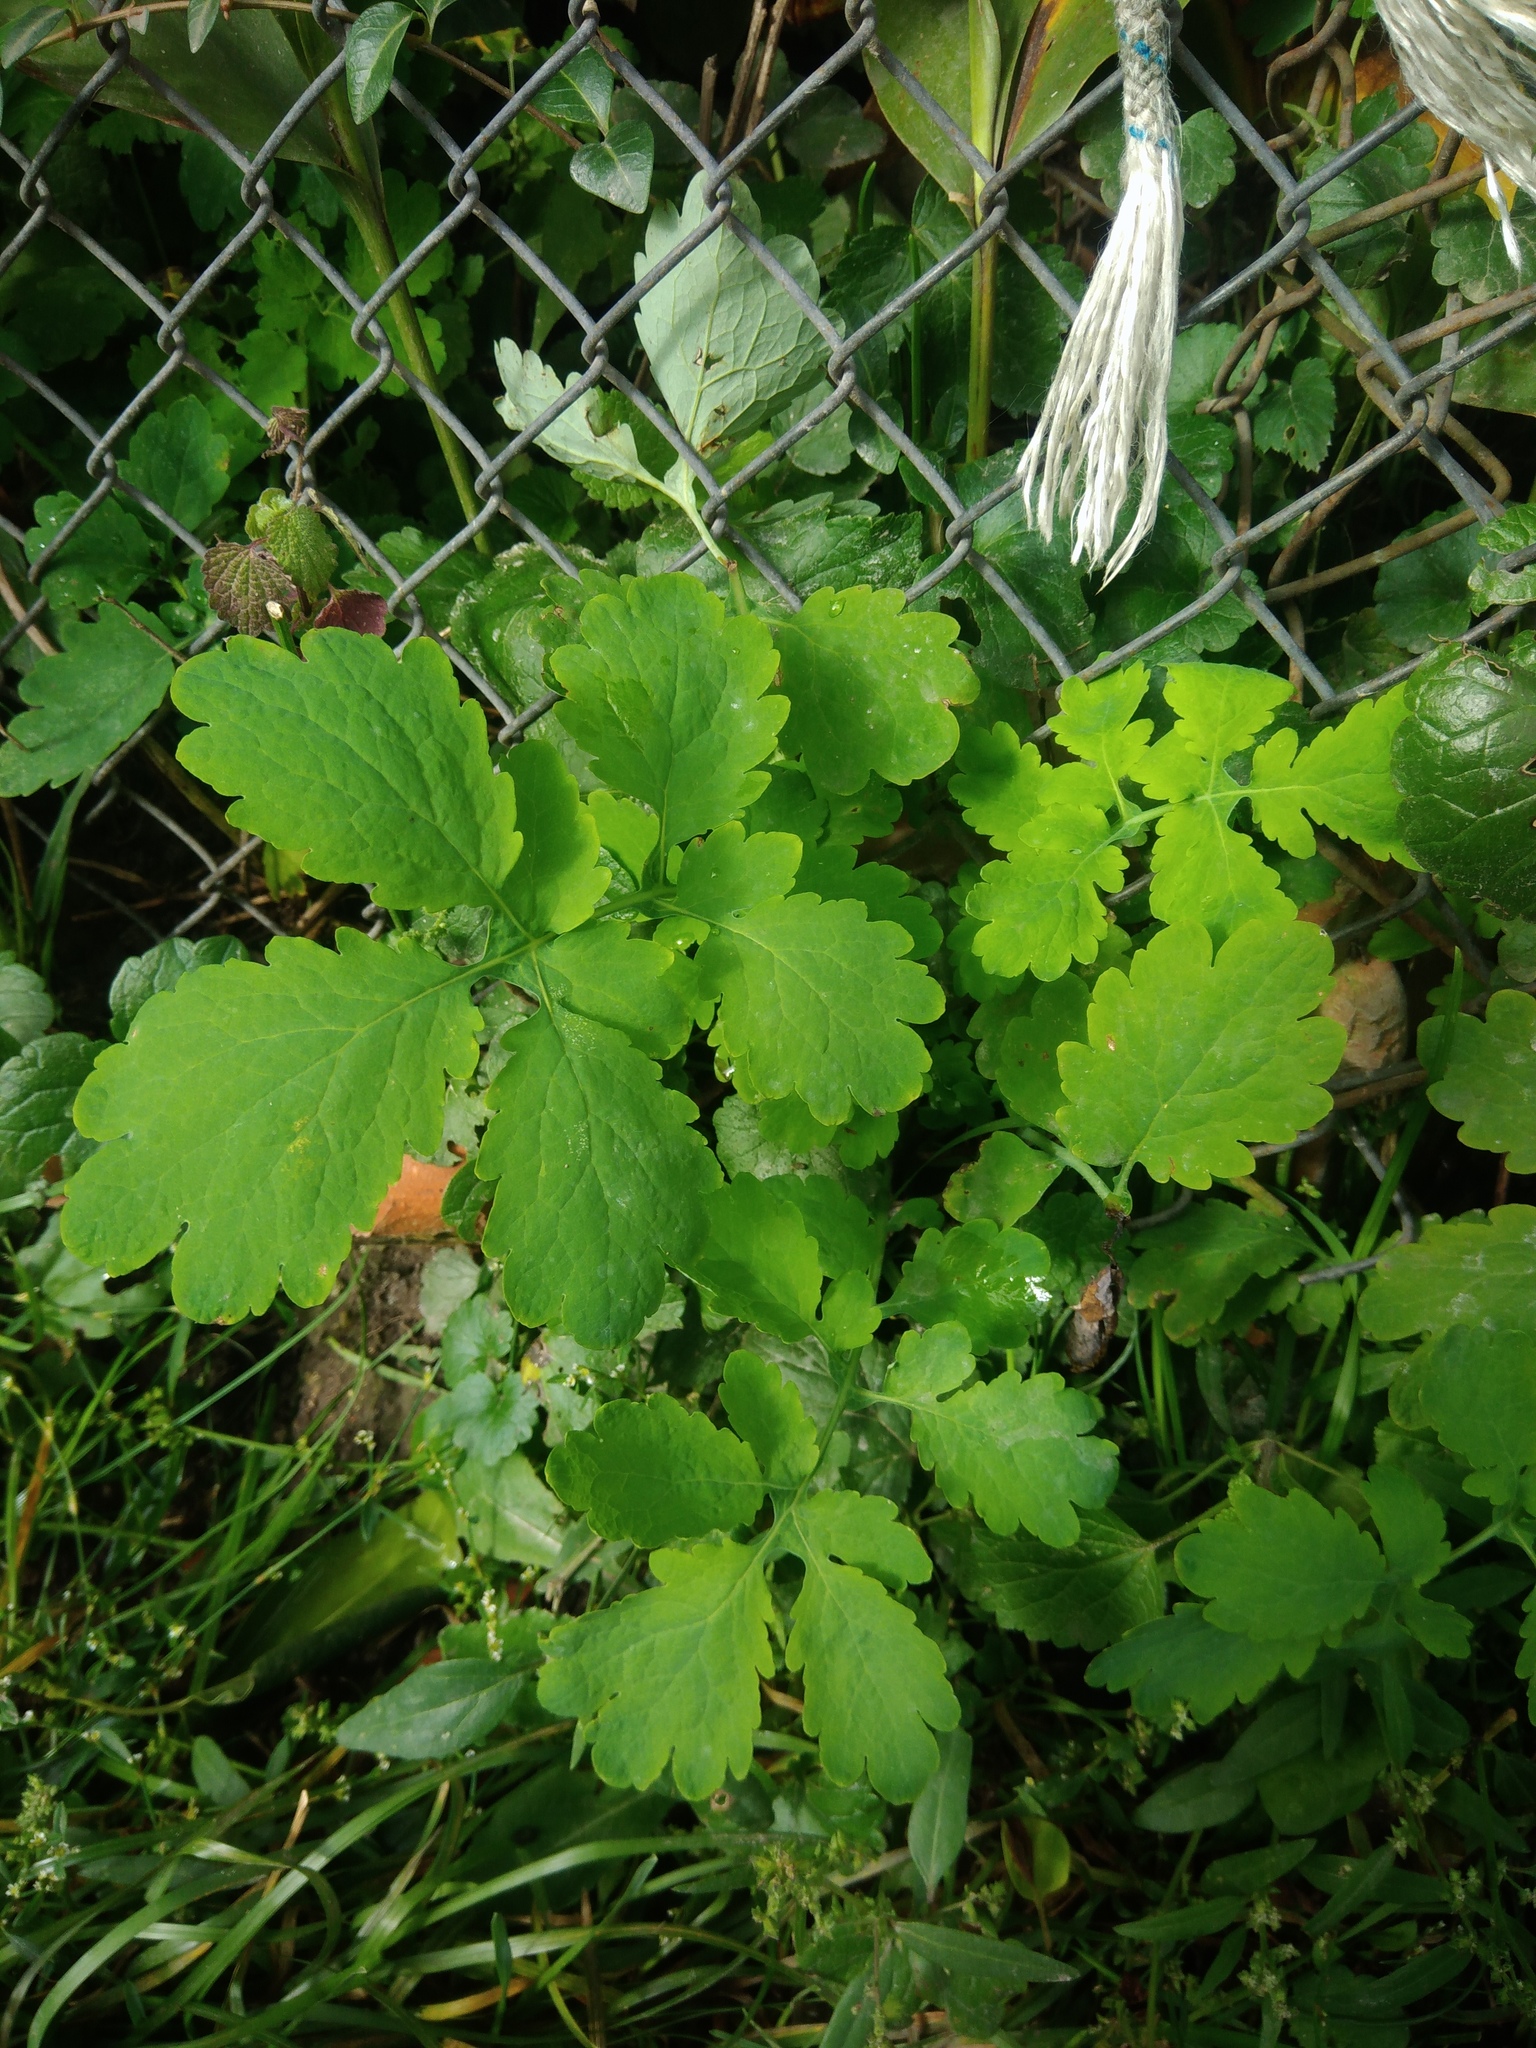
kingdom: Plantae
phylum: Tracheophyta
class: Magnoliopsida
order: Ranunculales
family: Papaveraceae
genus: Chelidonium
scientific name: Chelidonium majus
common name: Greater celandine
